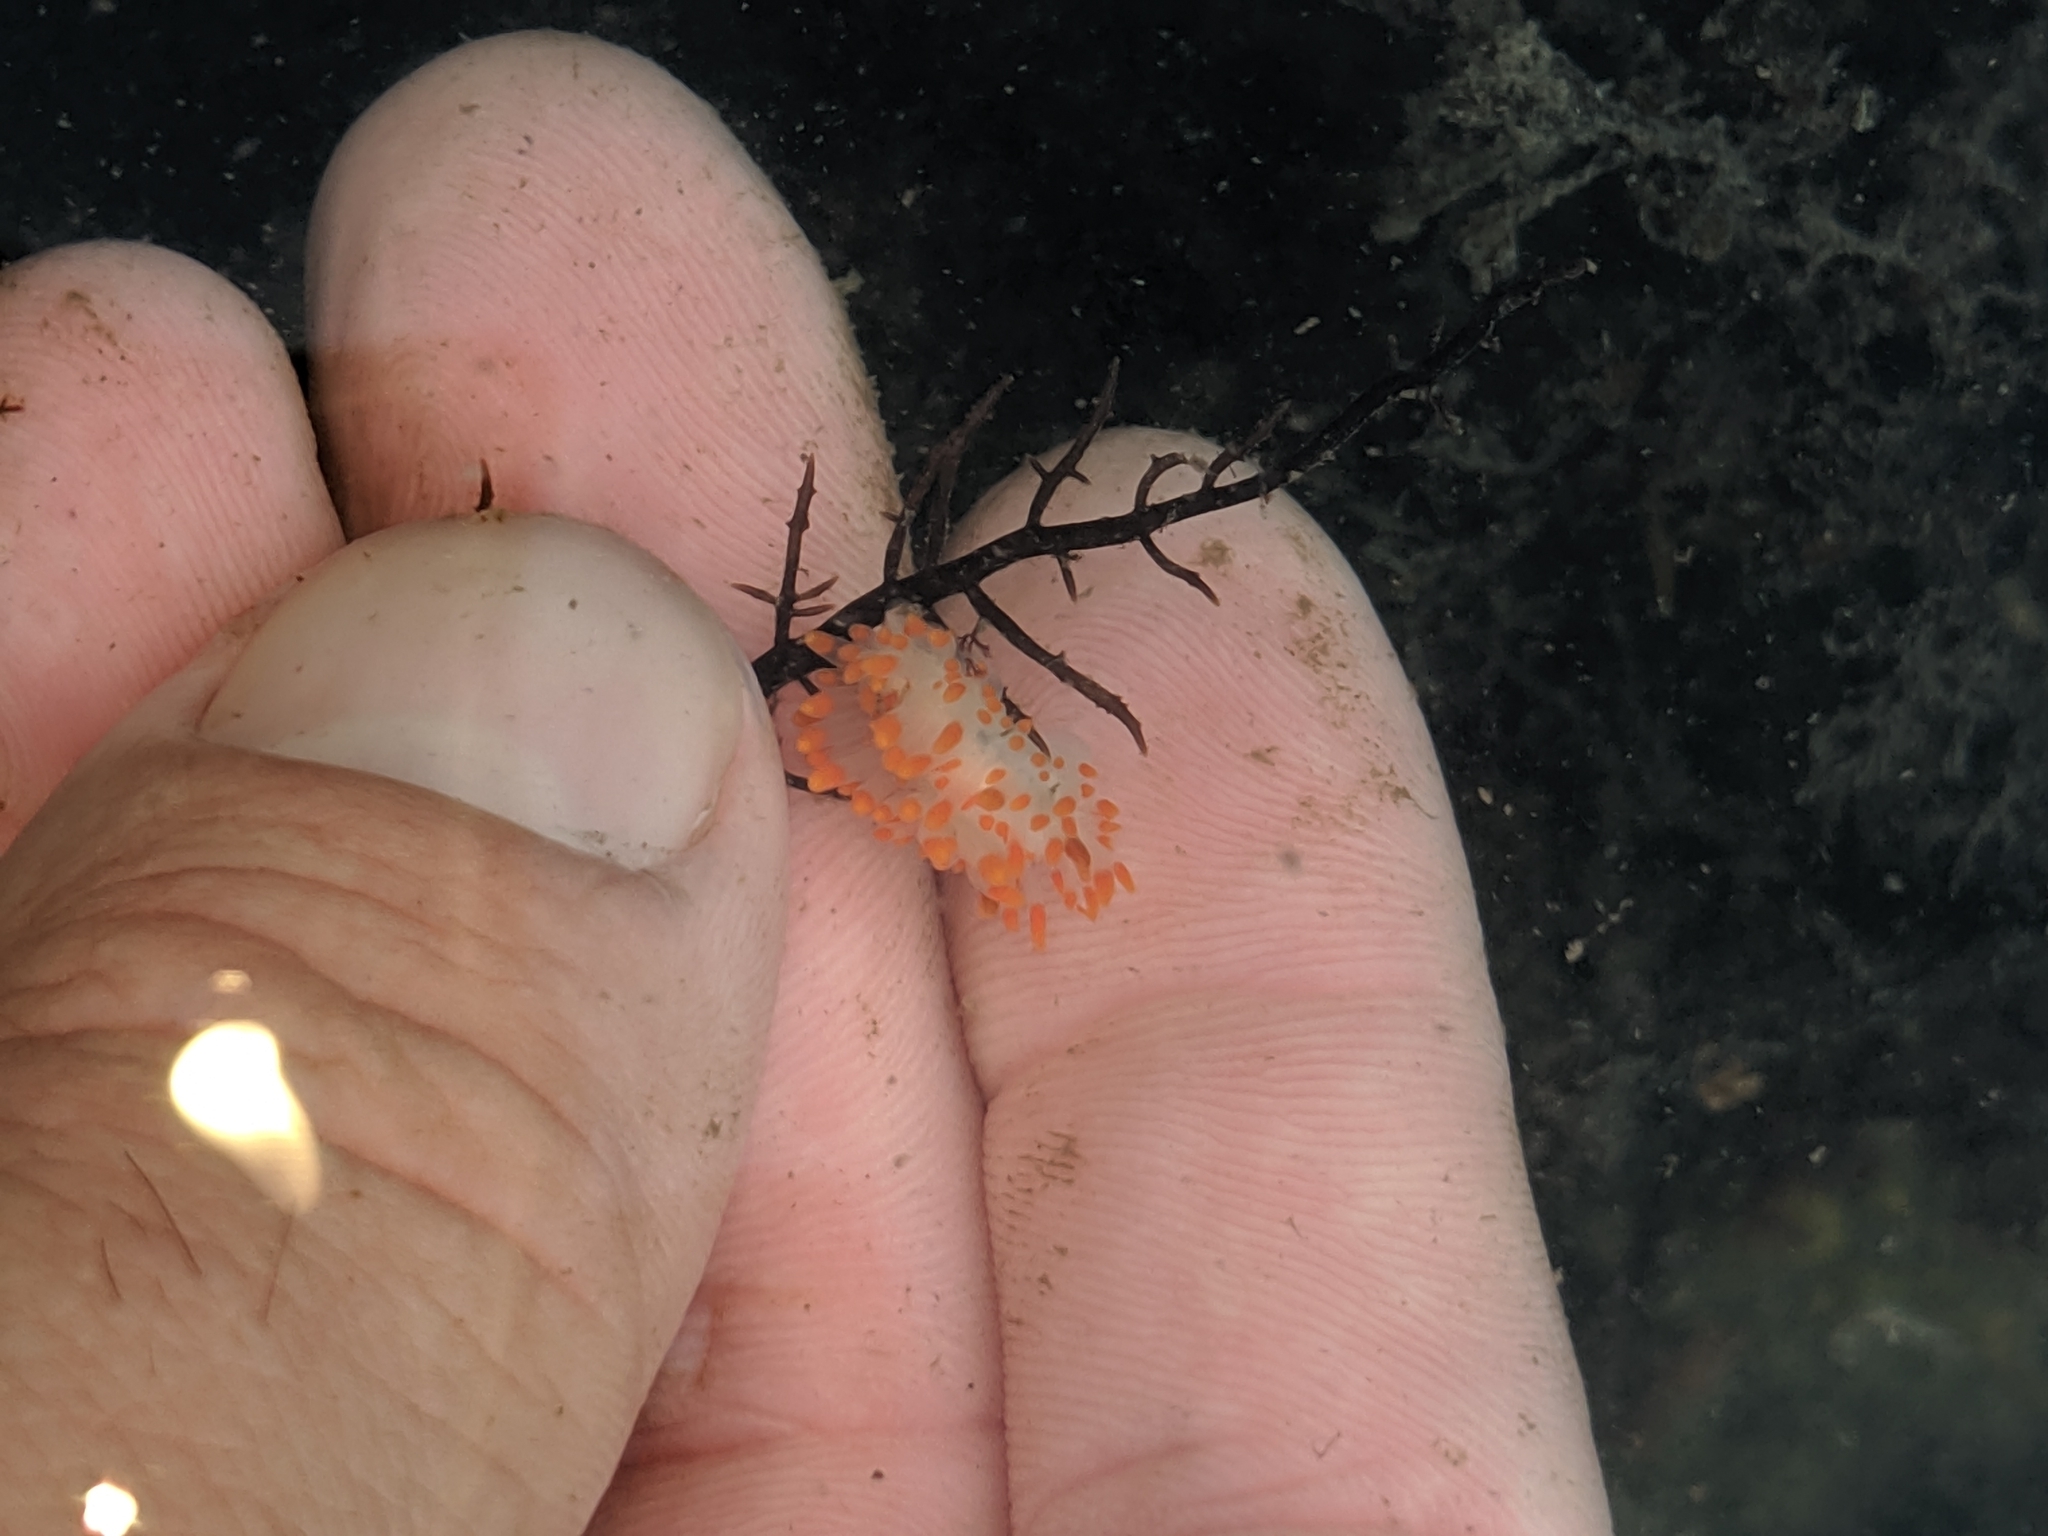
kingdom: Animalia
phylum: Mollusca
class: Gastropoda
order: Nudibranchia
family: Polyceridae
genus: Limacia
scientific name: Limacia mcdonaldi
